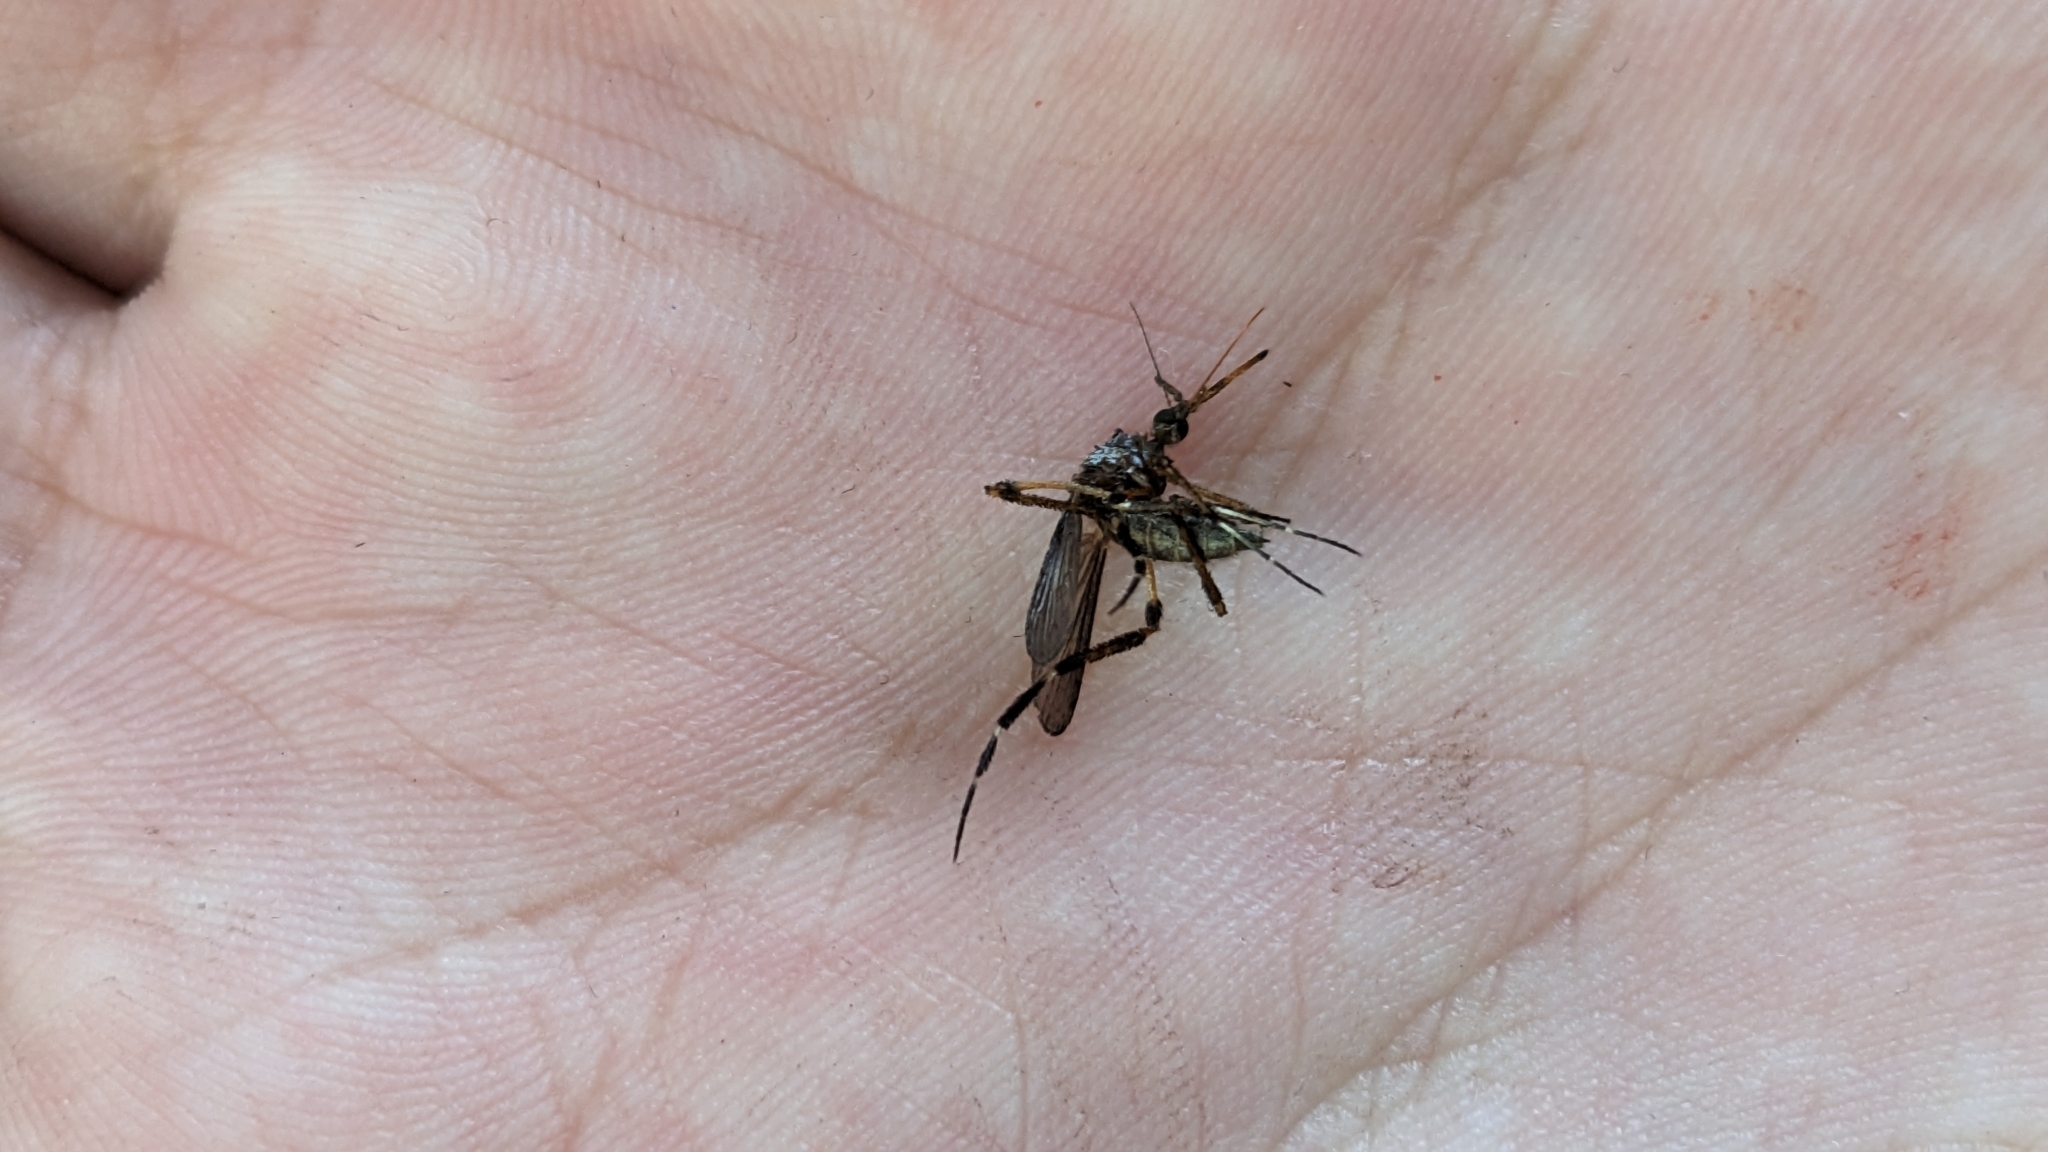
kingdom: Animalia
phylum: Arthropoda
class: Insecta
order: Diptera
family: Culicidae
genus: Psorophora
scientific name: Psorophora ciliata
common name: Gallinipper
